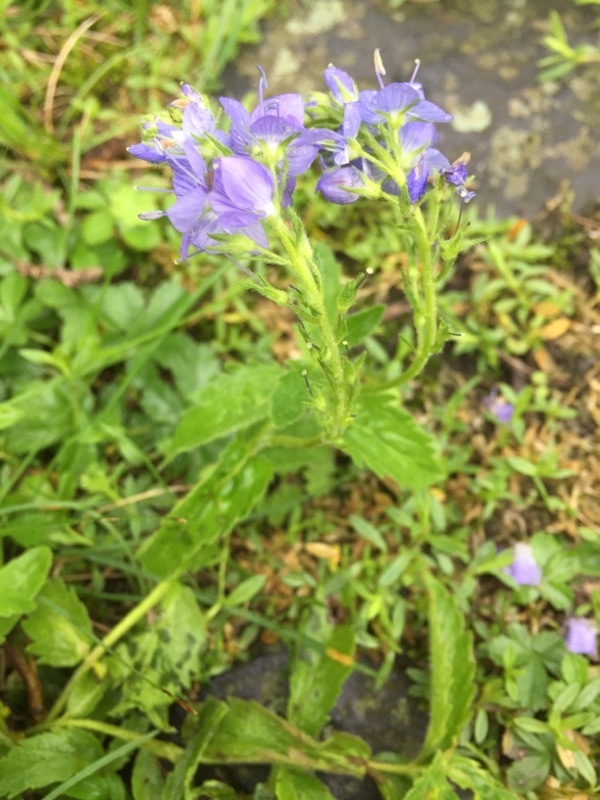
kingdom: Plantae
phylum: Tracheophyta
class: Magnoliopsida
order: Lamiales
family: Plantaginaceae
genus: Veronica
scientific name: Veronica teucrium
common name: Large speedwell
